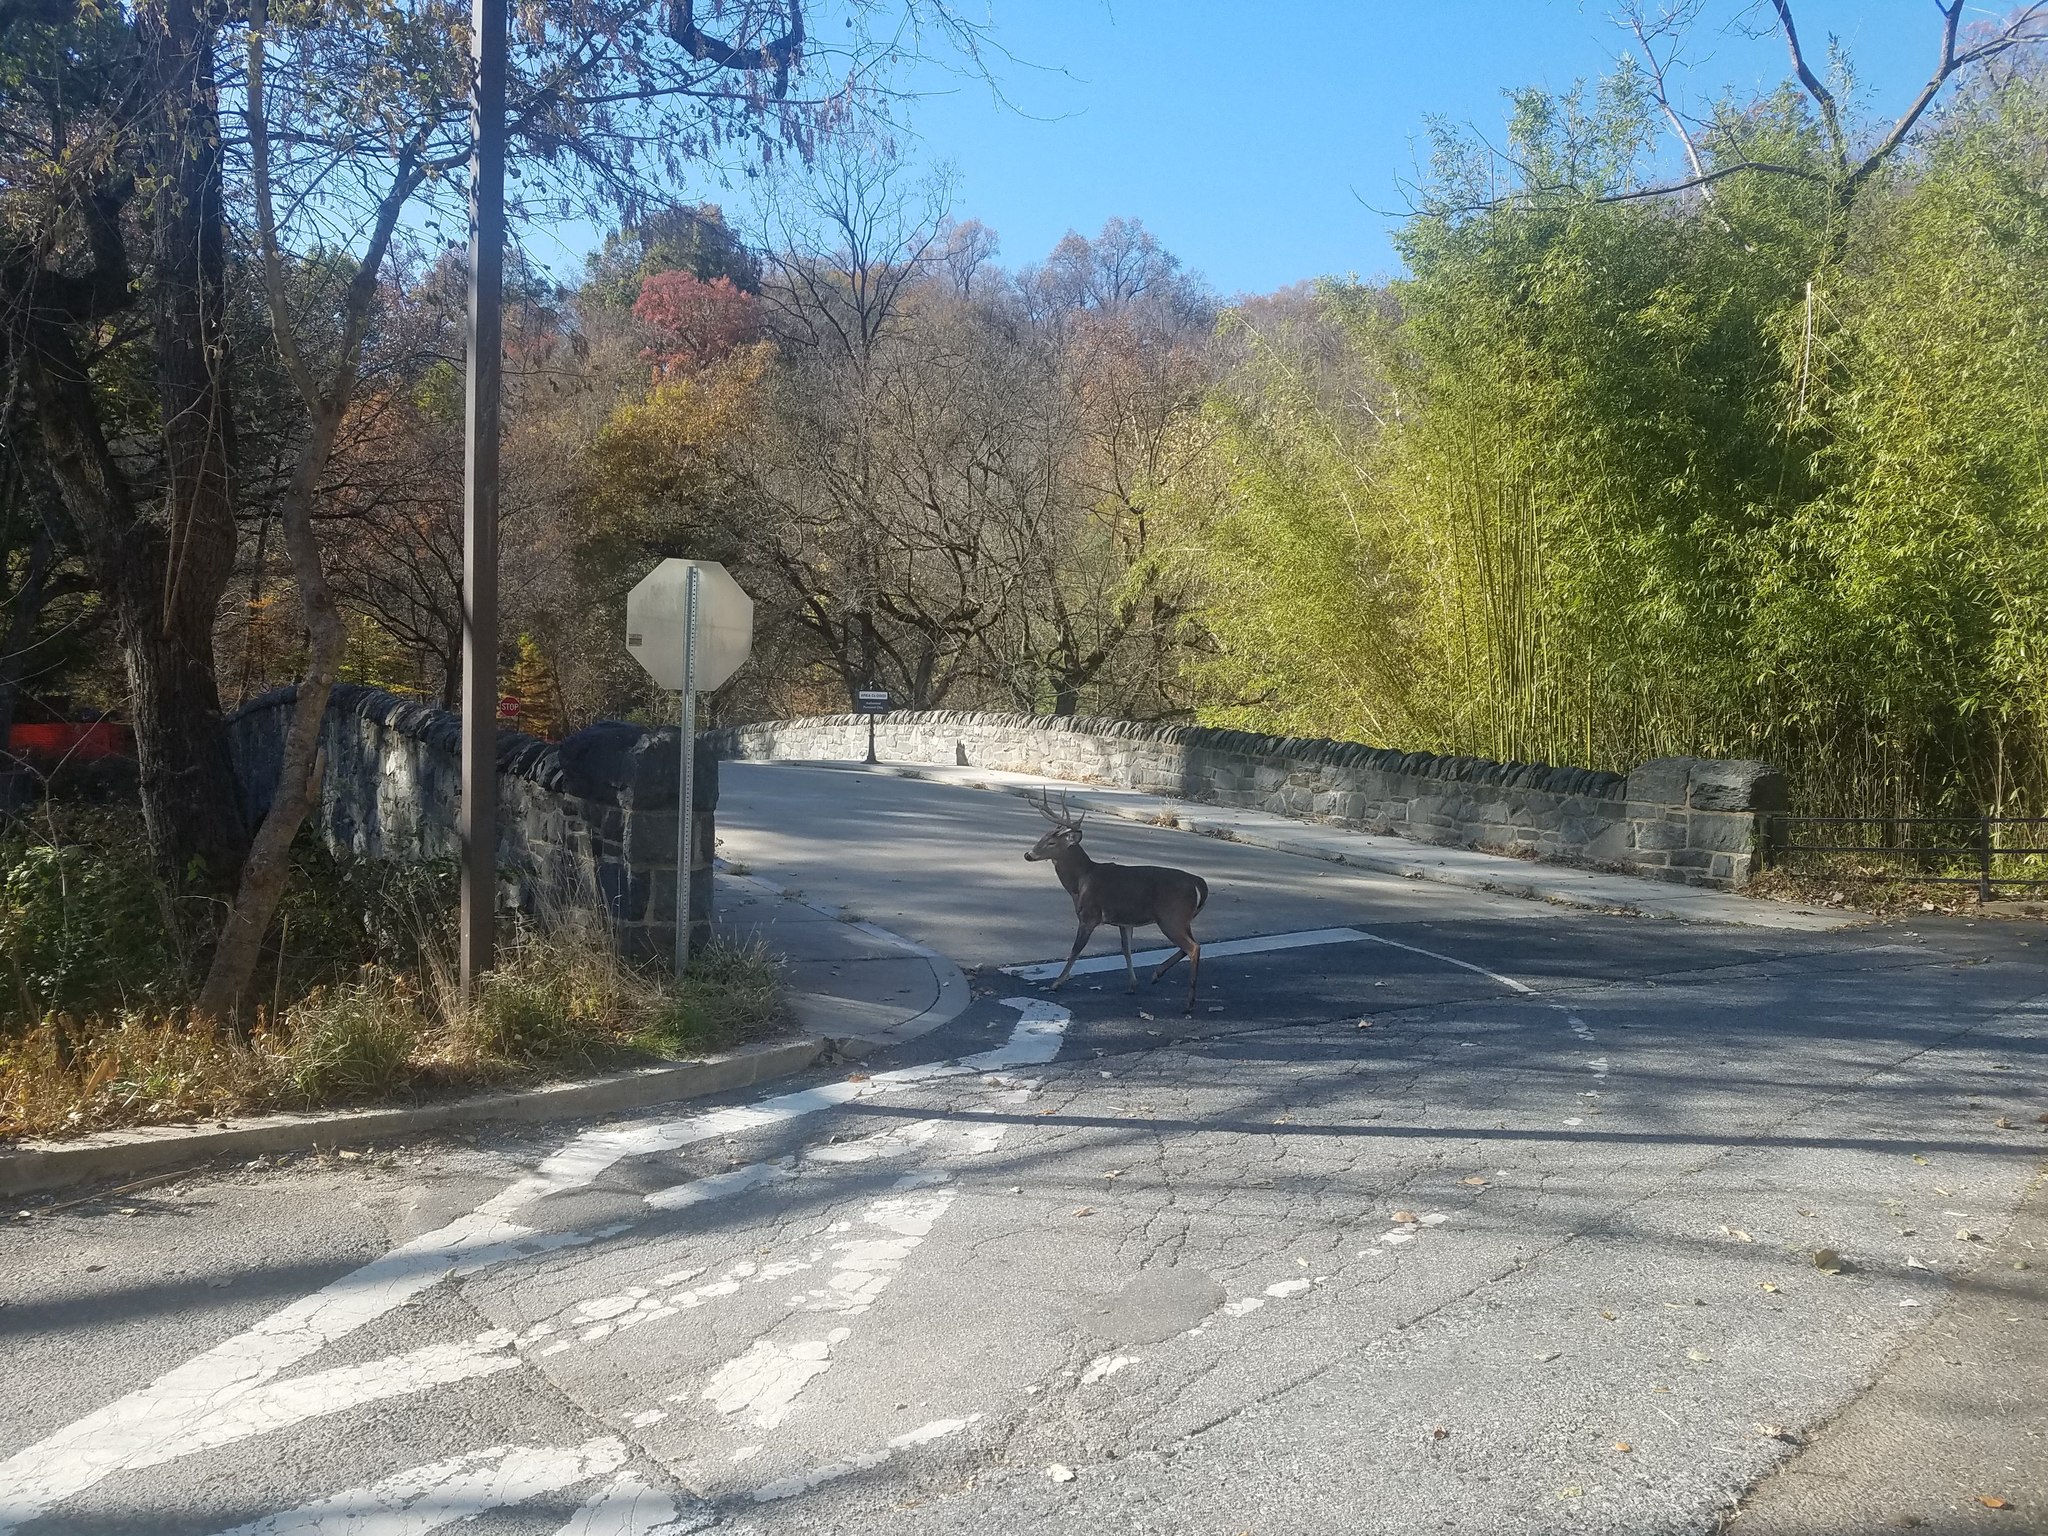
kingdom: Animalia
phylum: Chordata
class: Mammalia
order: Artiodactyla
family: Cervidae
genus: Odocoileus
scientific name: Odocoileus virginianus
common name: White-tailed deer
